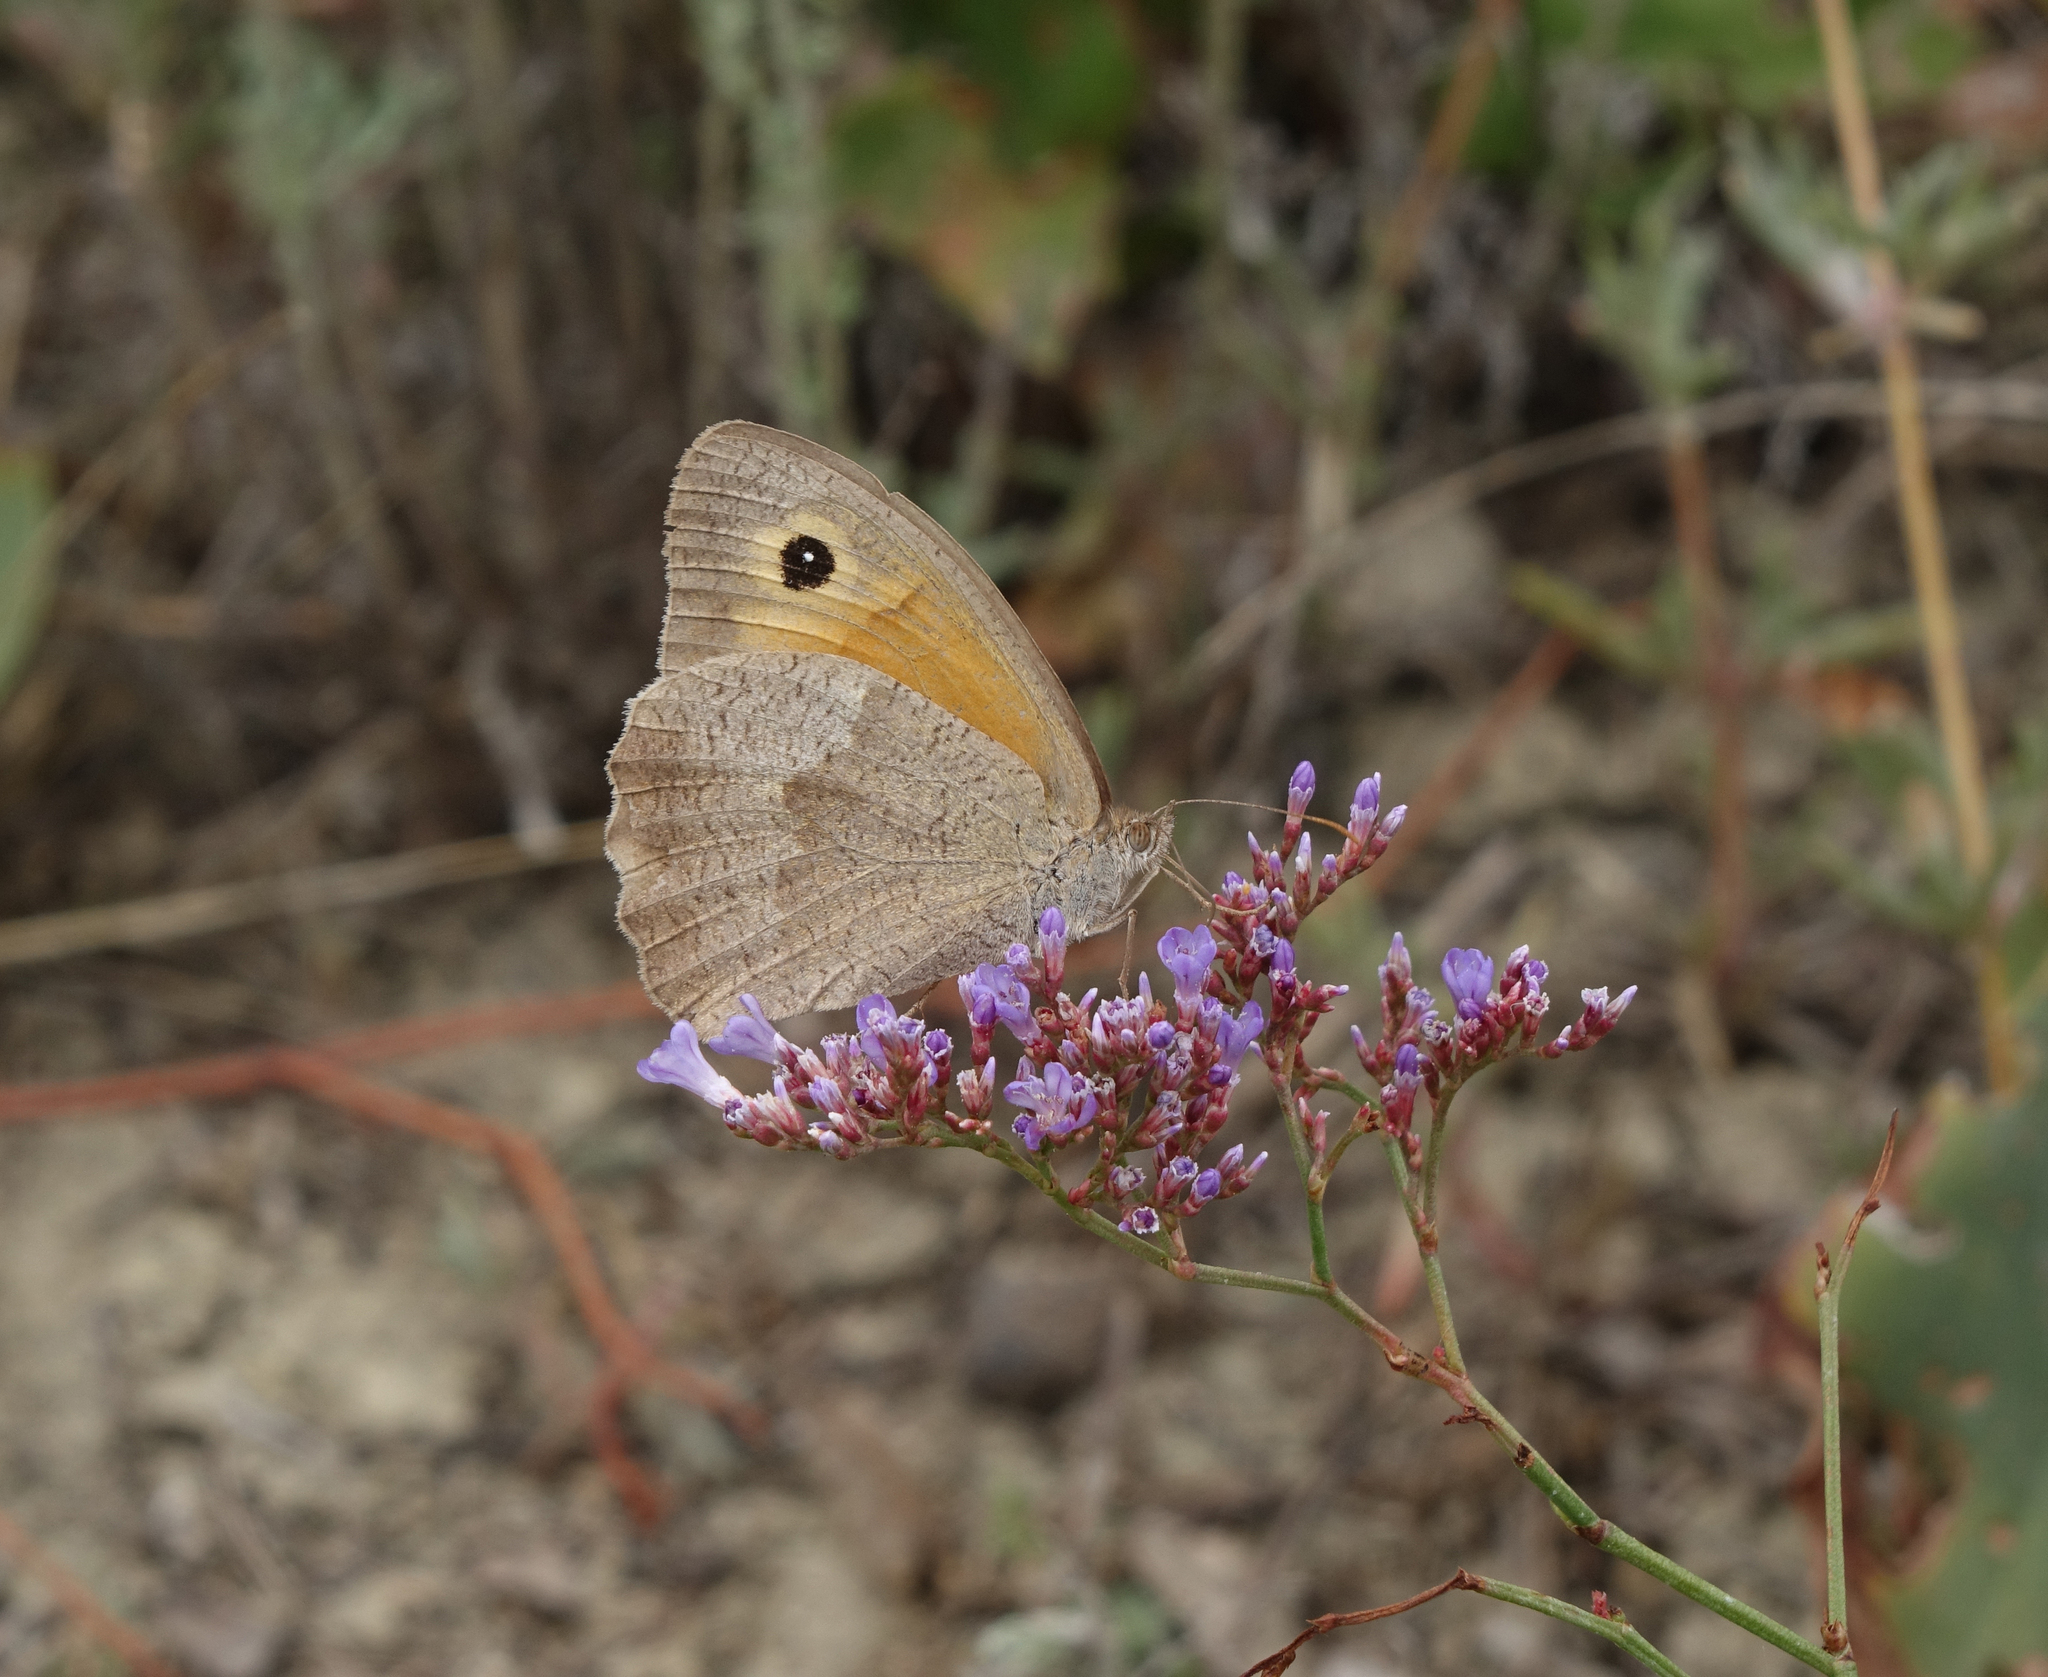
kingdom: Animalia
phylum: Arthropoda
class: Insecta
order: Lepidoptera
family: Nymphalidae
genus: Maniola
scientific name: Maniola jurtina
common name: Meadow brown
